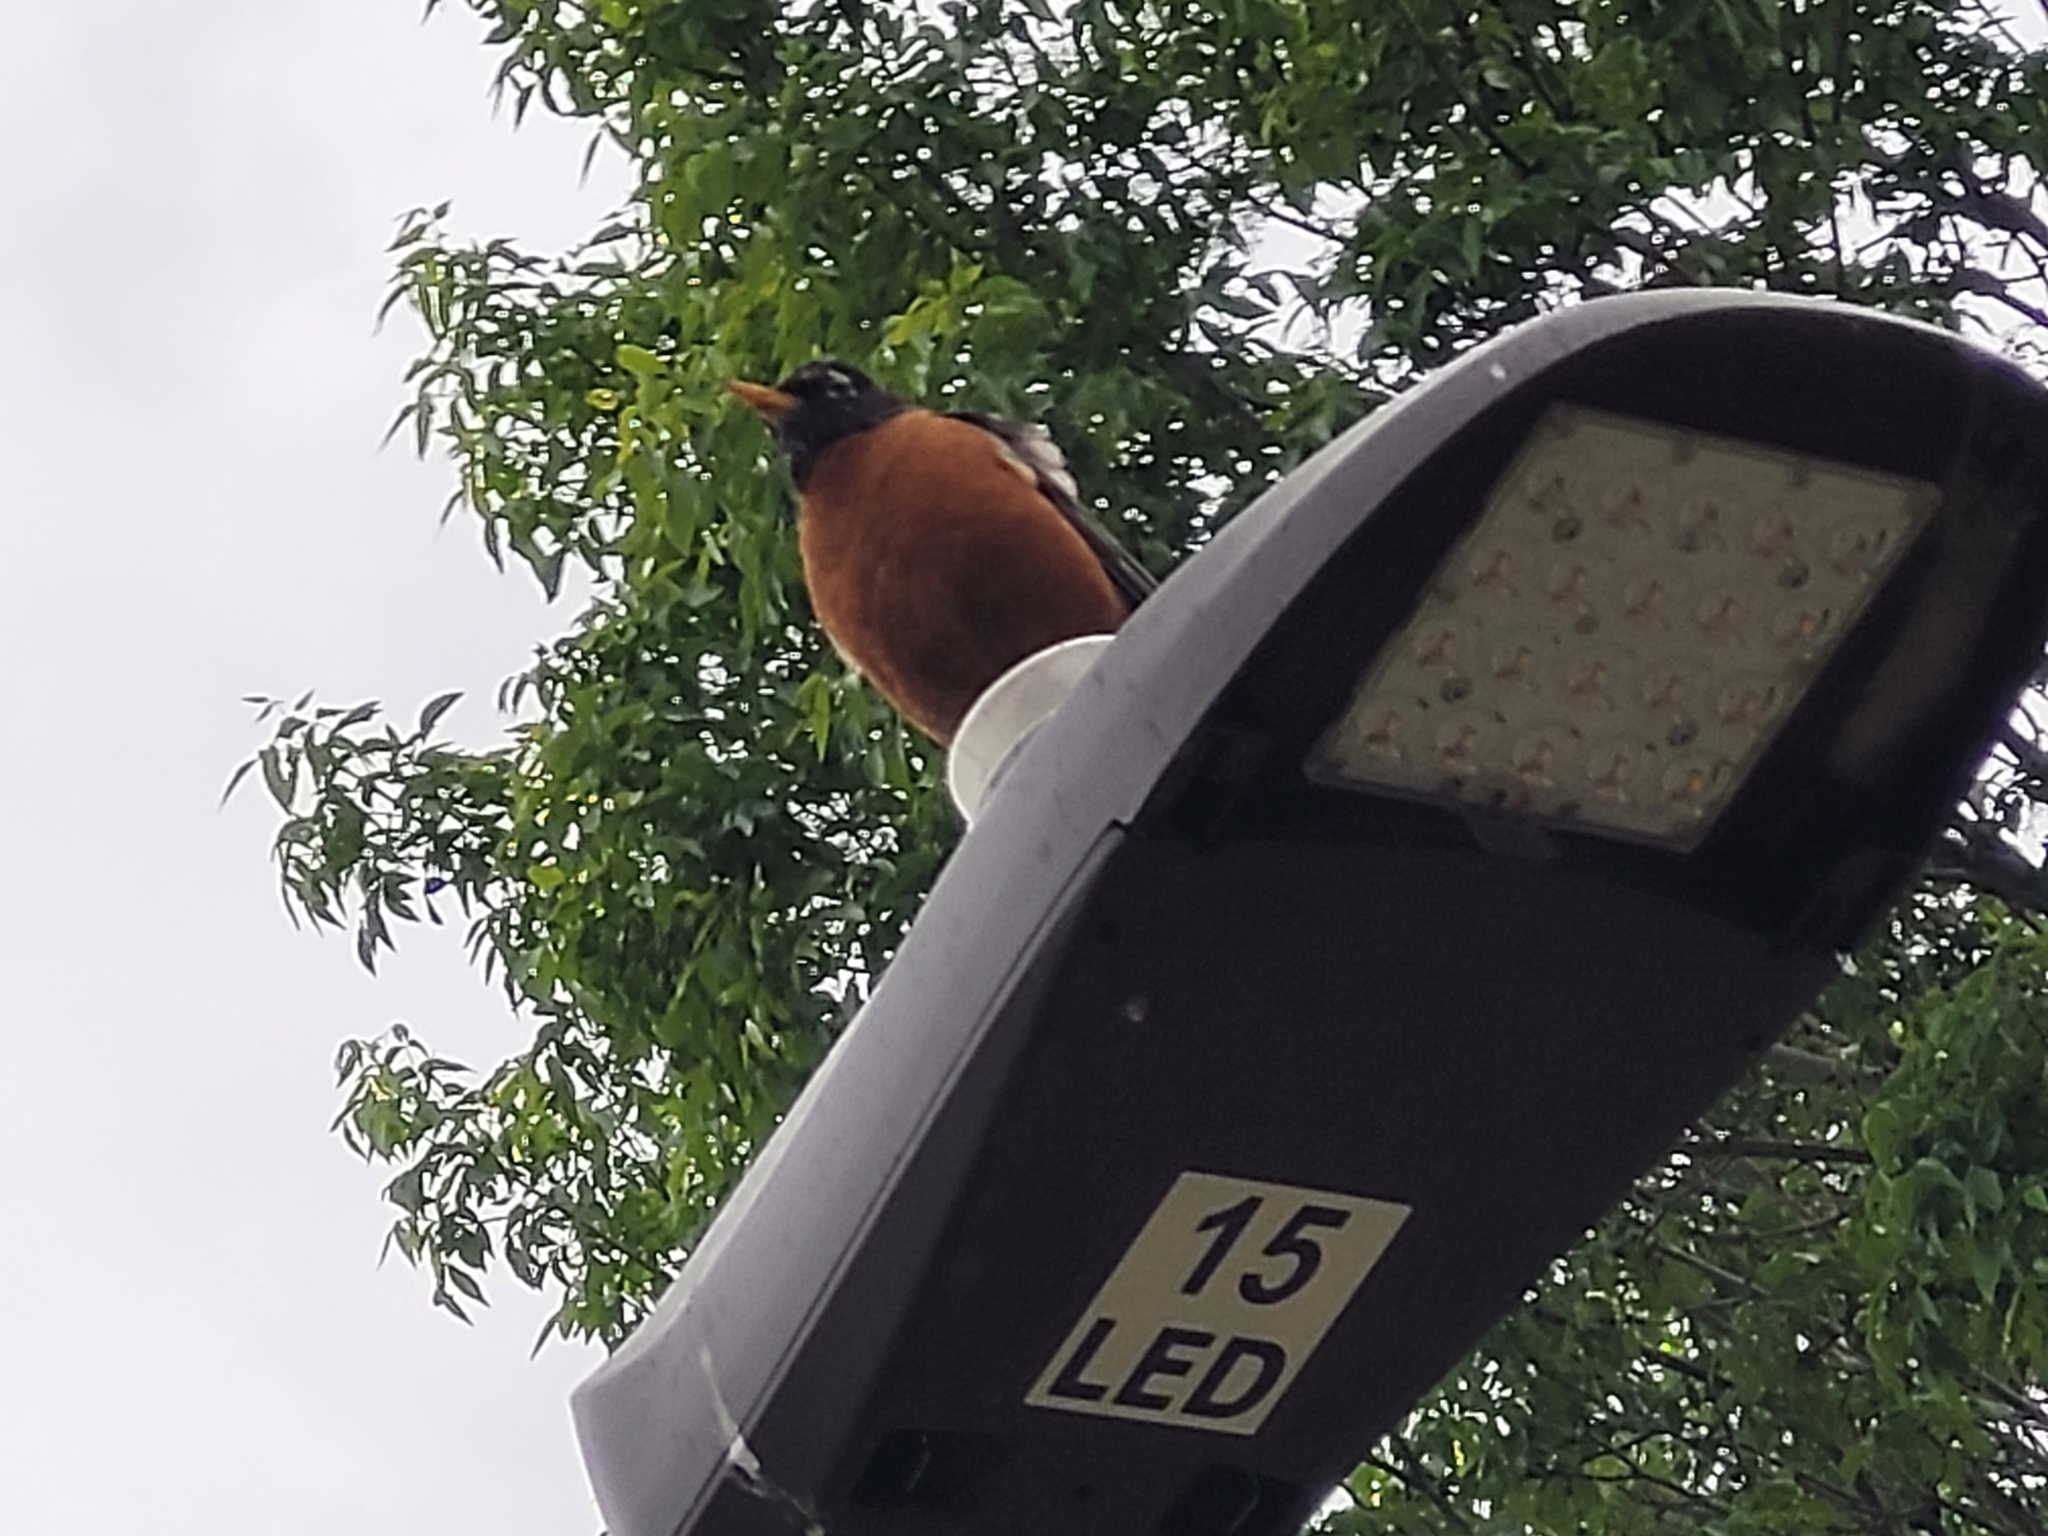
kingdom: Animalia
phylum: Chordata
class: Aves
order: Passeriformes
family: Turdidae
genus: Turdus
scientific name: Turdus migratorius
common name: American robin
